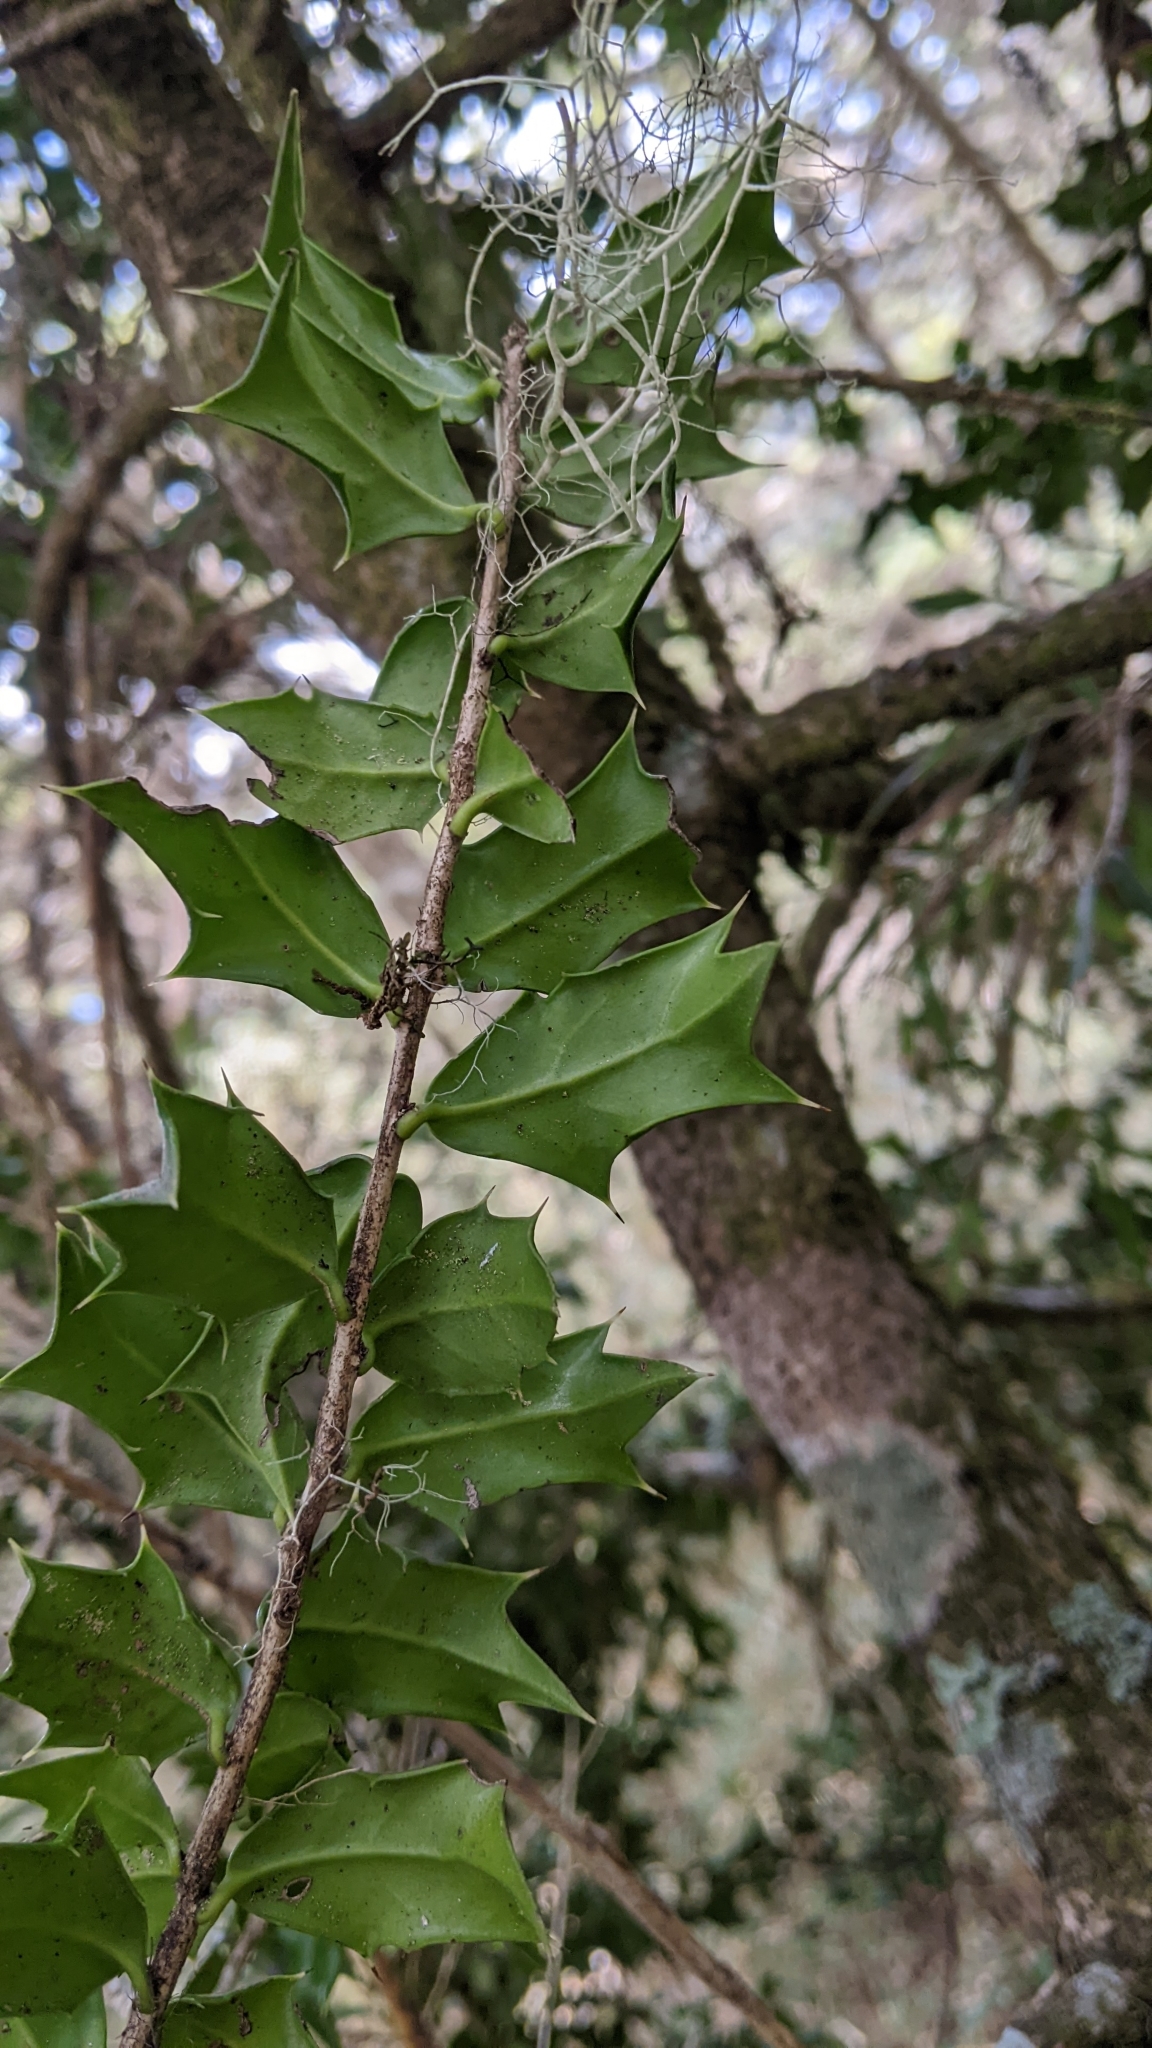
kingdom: Plantae
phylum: Tracheophyta
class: Magnoliopsida
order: Aquifoliales
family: Aquifoliaceae
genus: Ilex
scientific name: Ilex bioritsensis
